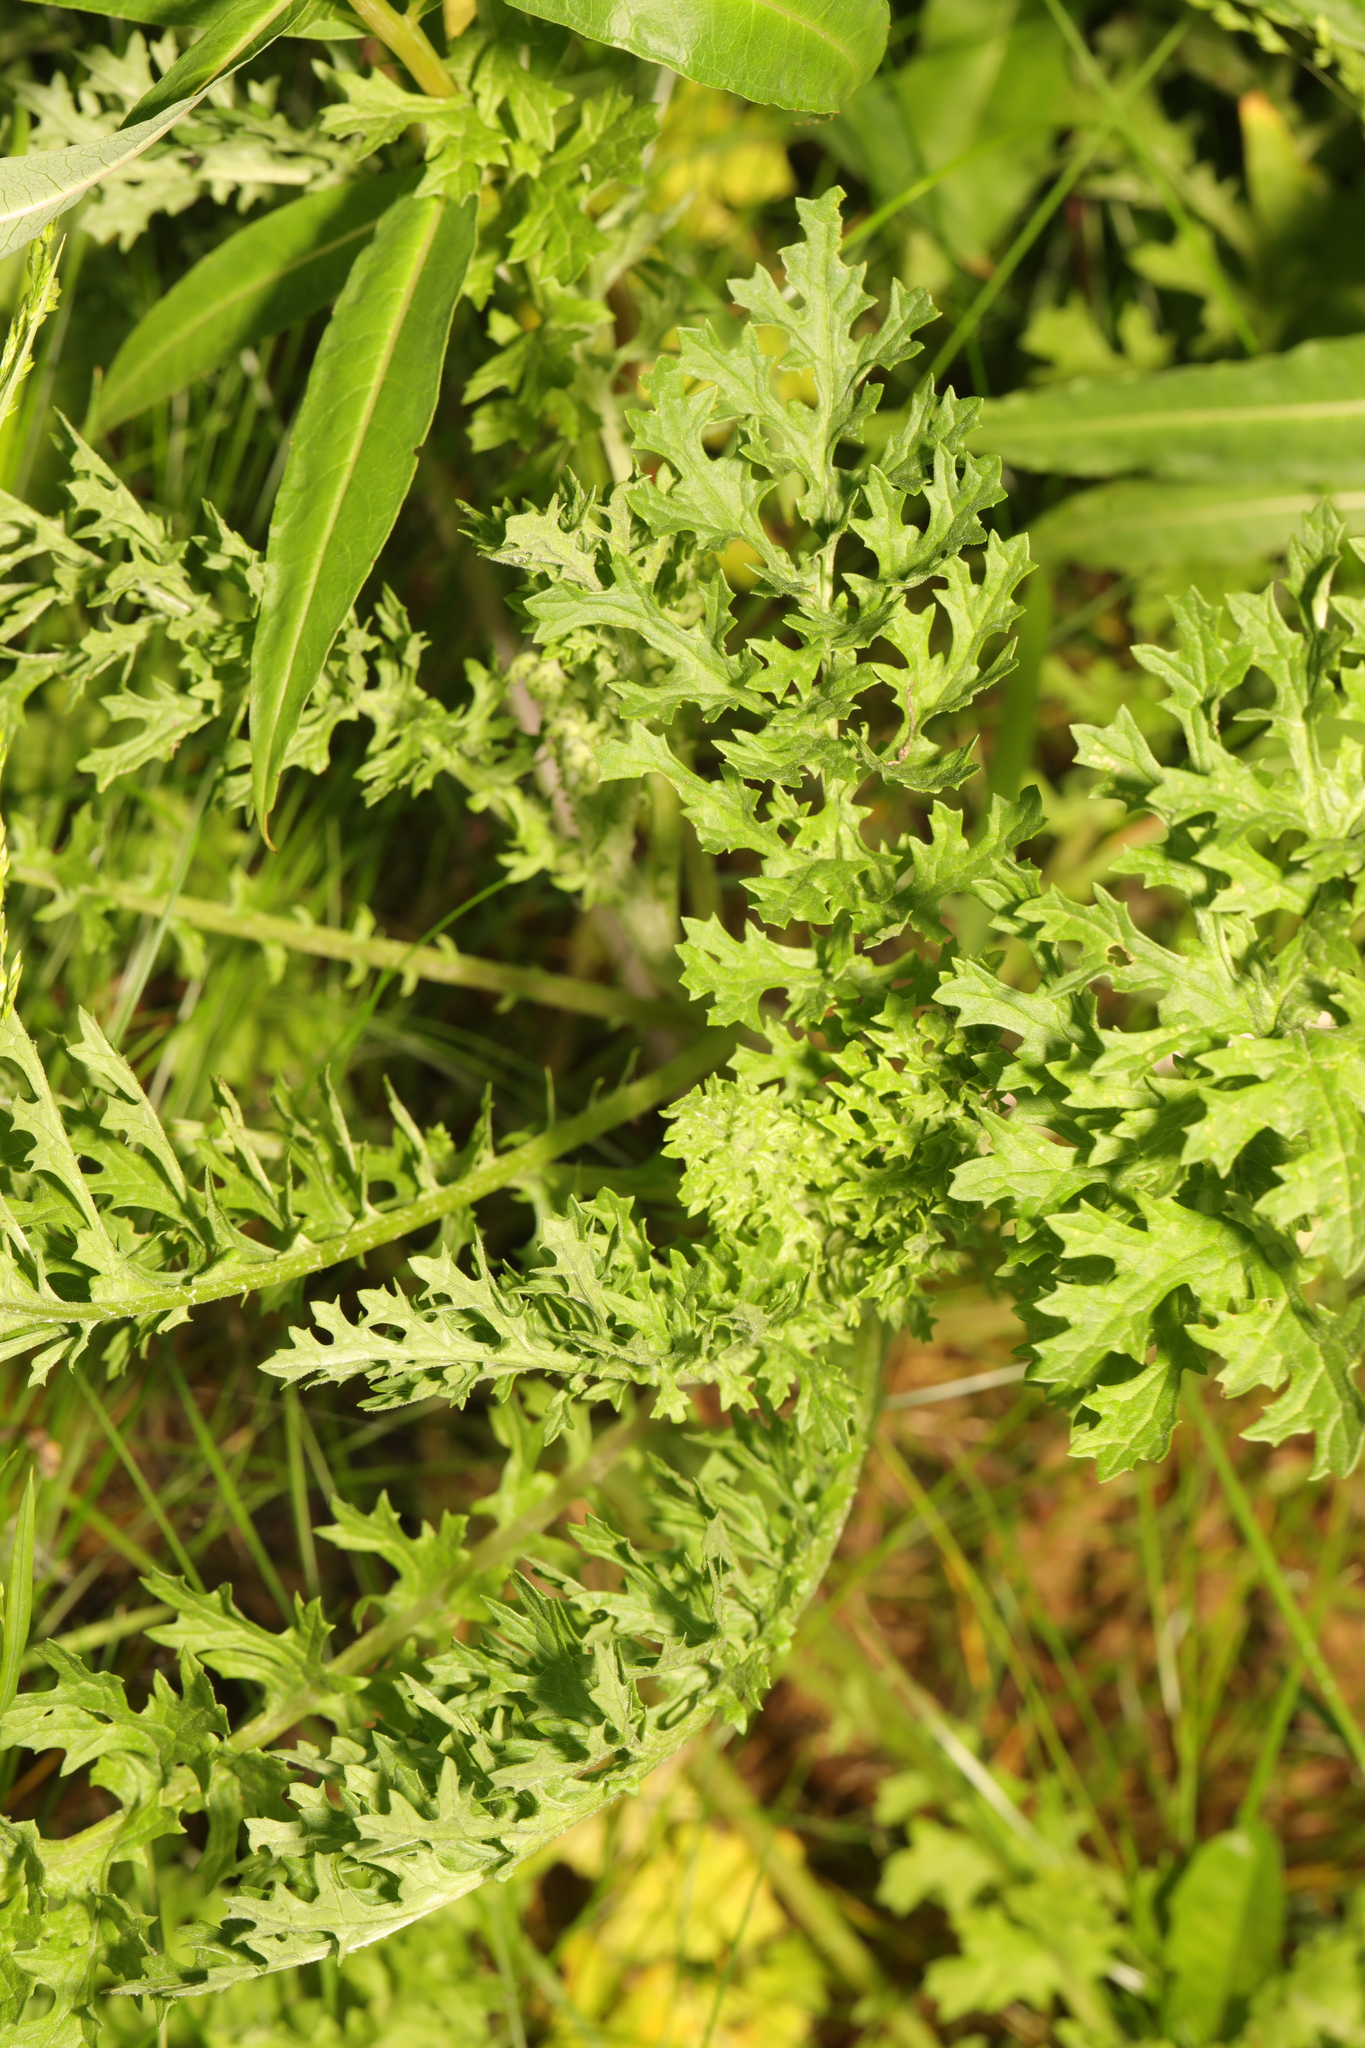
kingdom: Plantae
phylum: Tracheophyta
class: Magnoliopsida
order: Asterales
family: Asteraceae
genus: Jacobaea
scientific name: Jacobaea vulgaris
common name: Stinking willie
